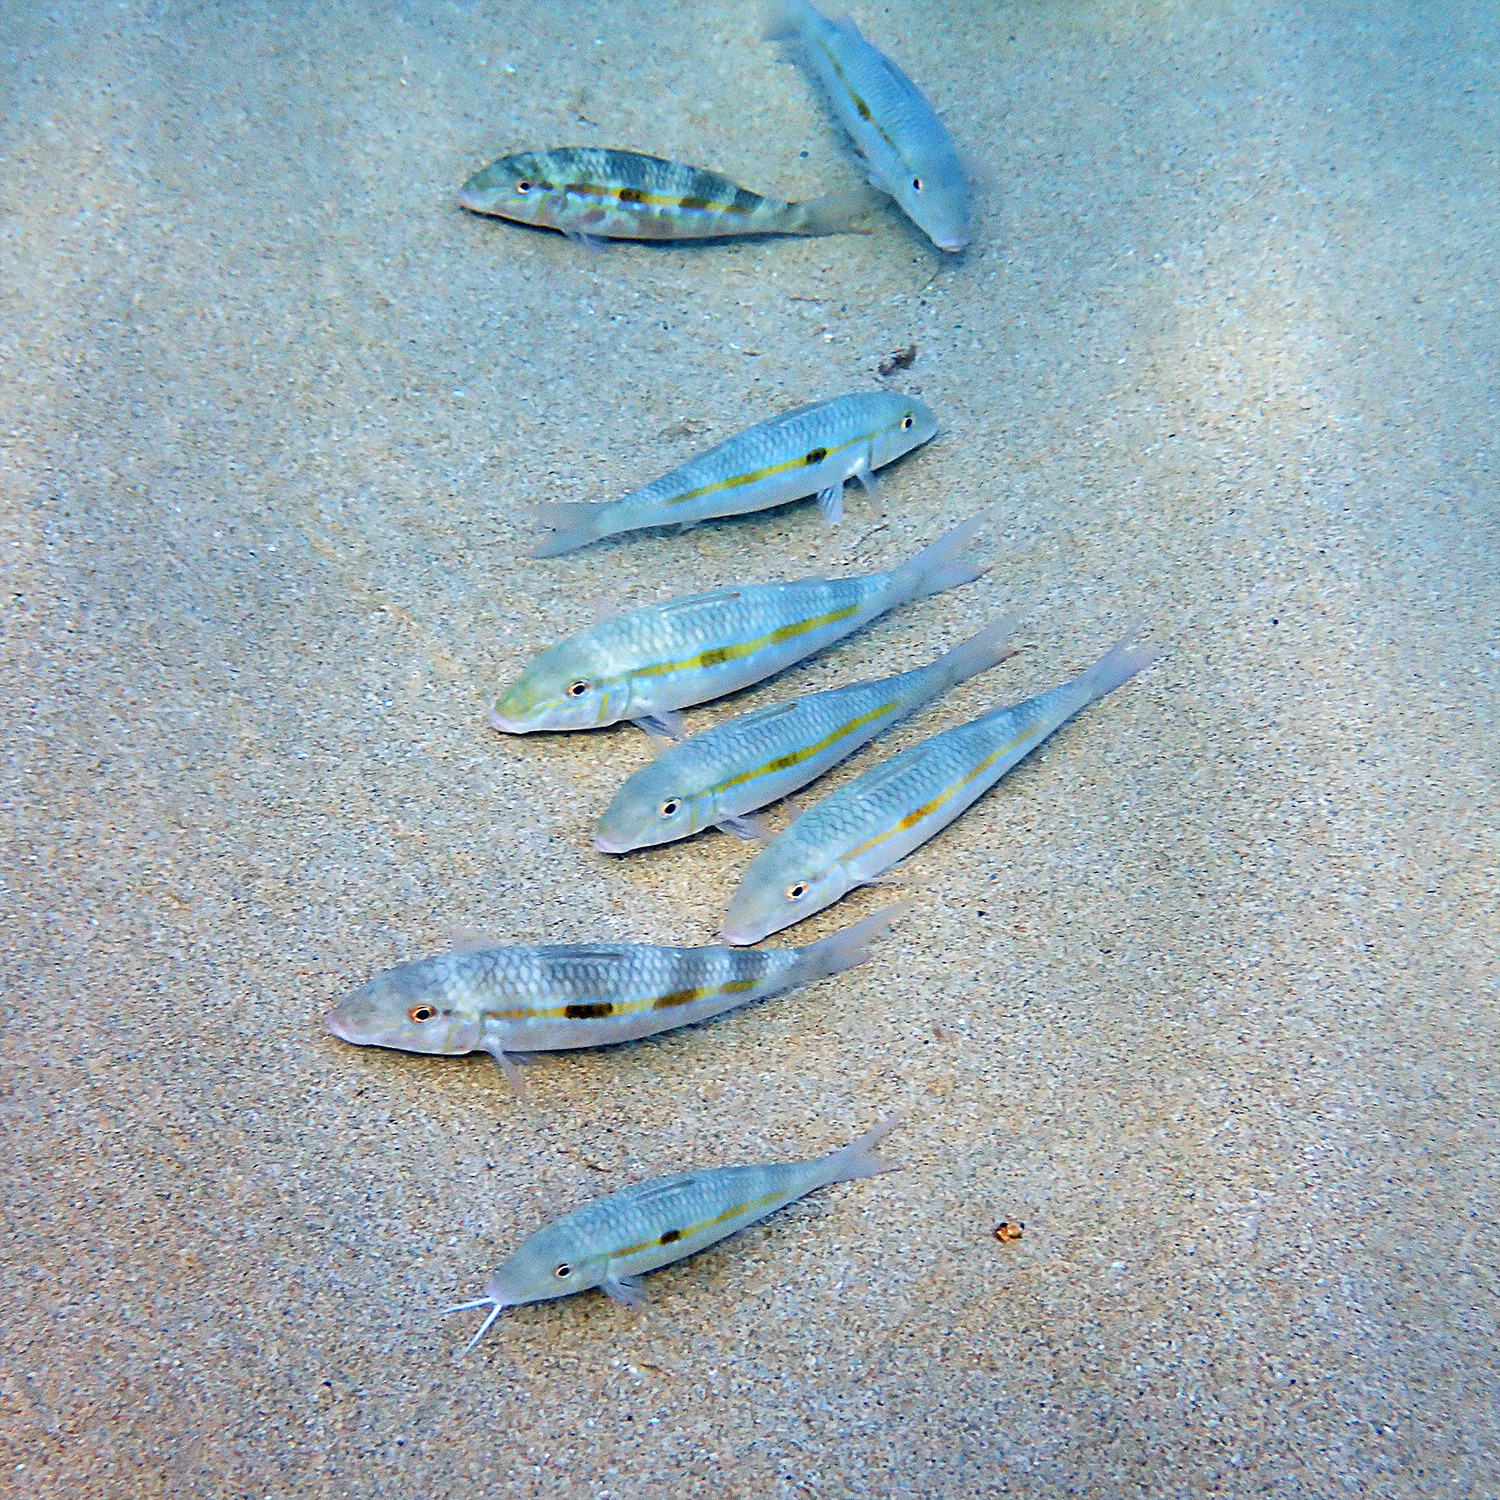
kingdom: Animalia
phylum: Chordata
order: Perciformes
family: Mullidae
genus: Mulloidichthys
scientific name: Mulloidichthys flavolineatus
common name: Yellowstripe goatfish
